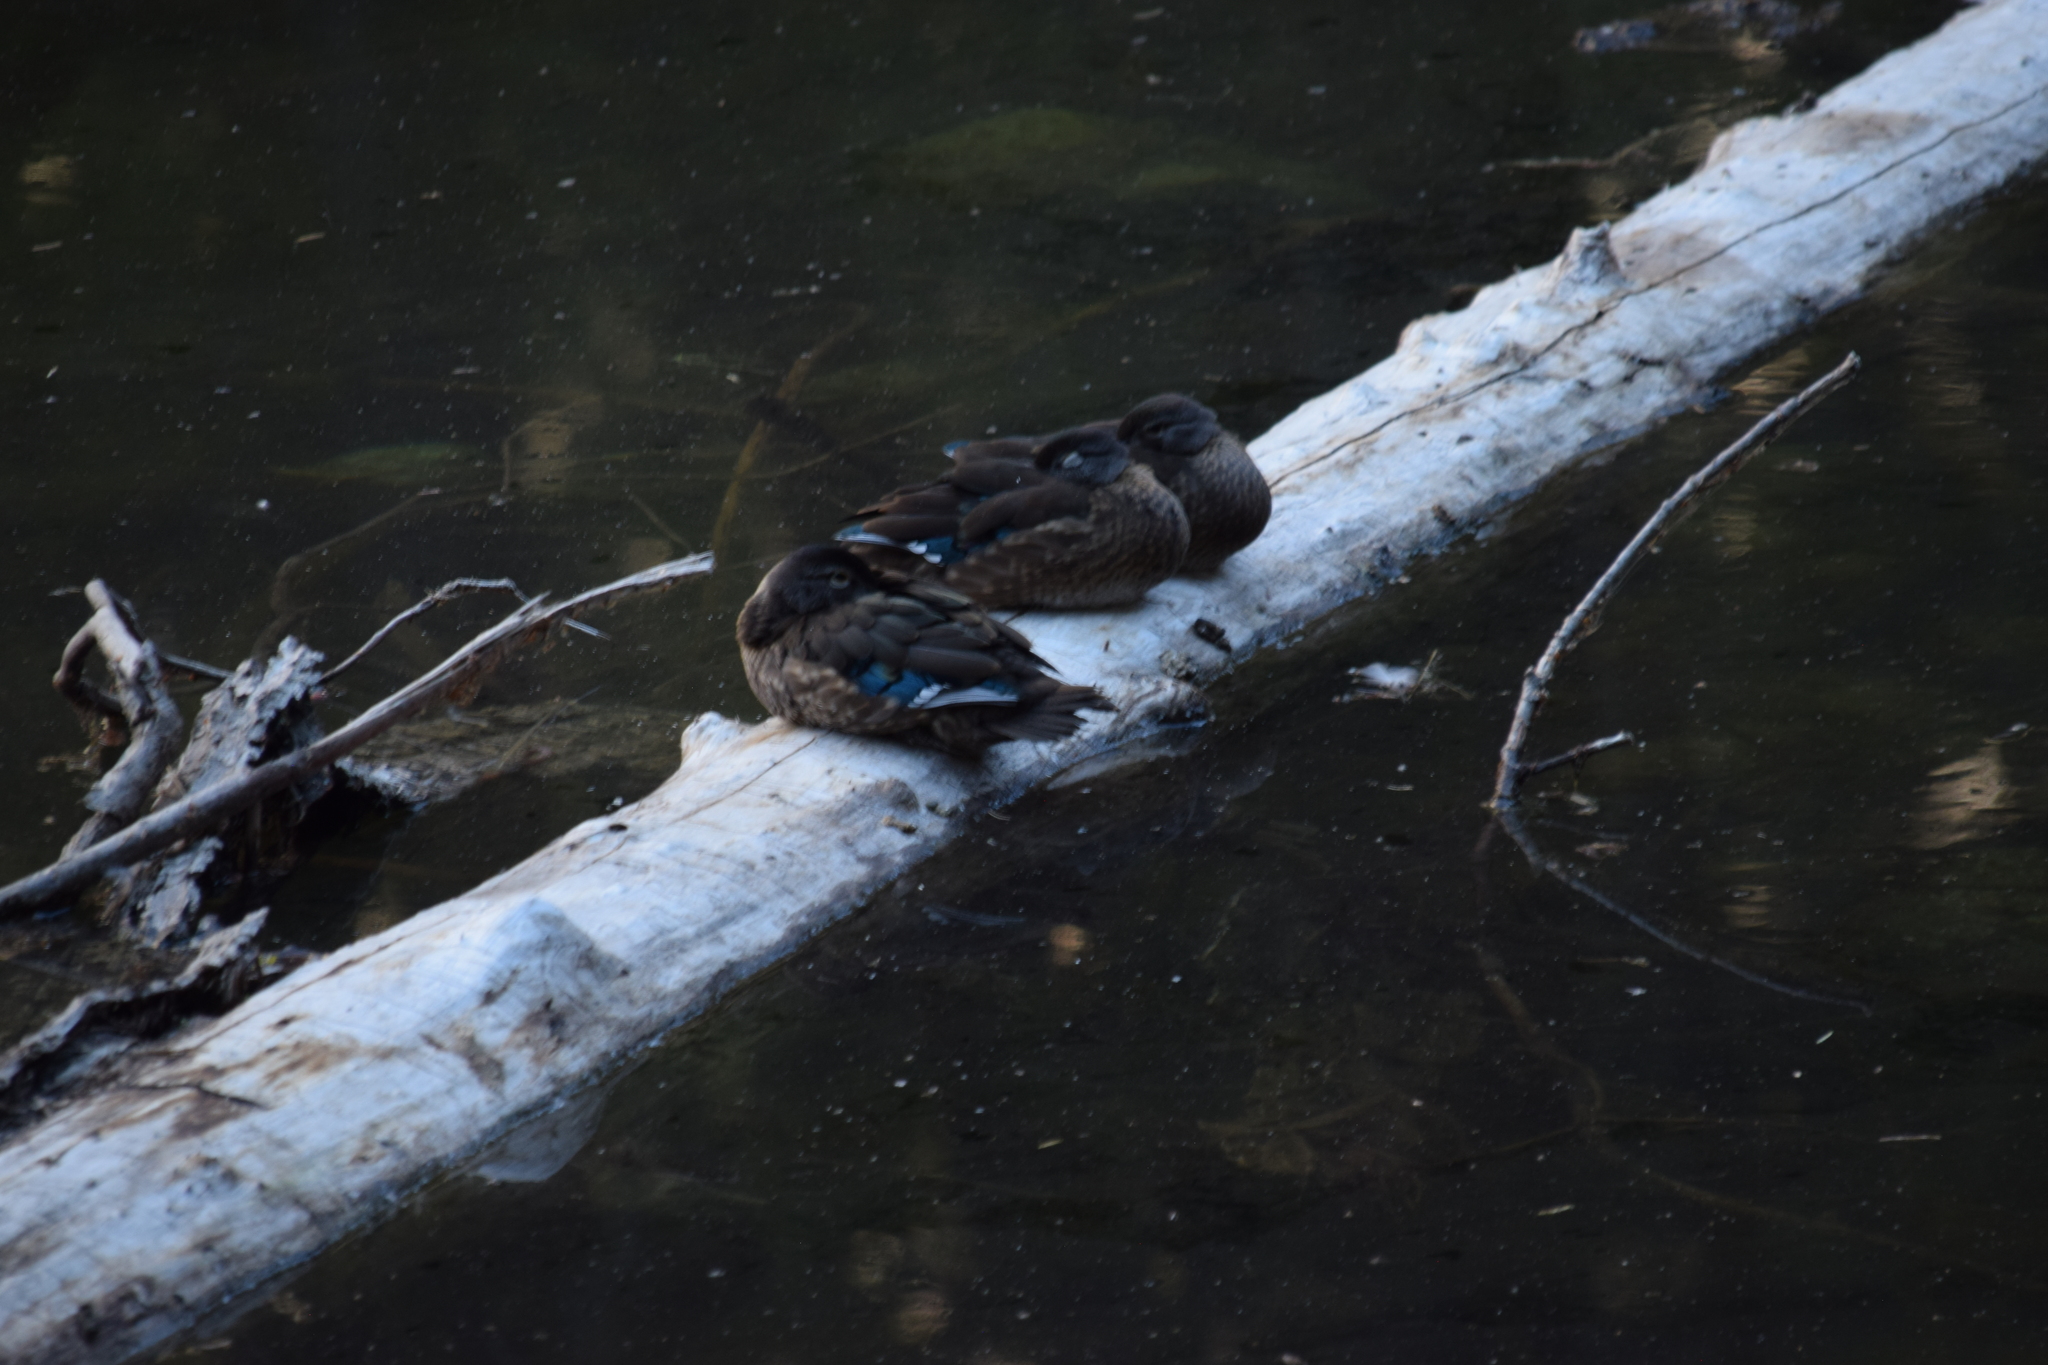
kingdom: Animalia
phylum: Chordata
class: Aves
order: Anseriformes
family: Anatidae
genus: Aix
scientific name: Aix sponsa
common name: Wood duck
